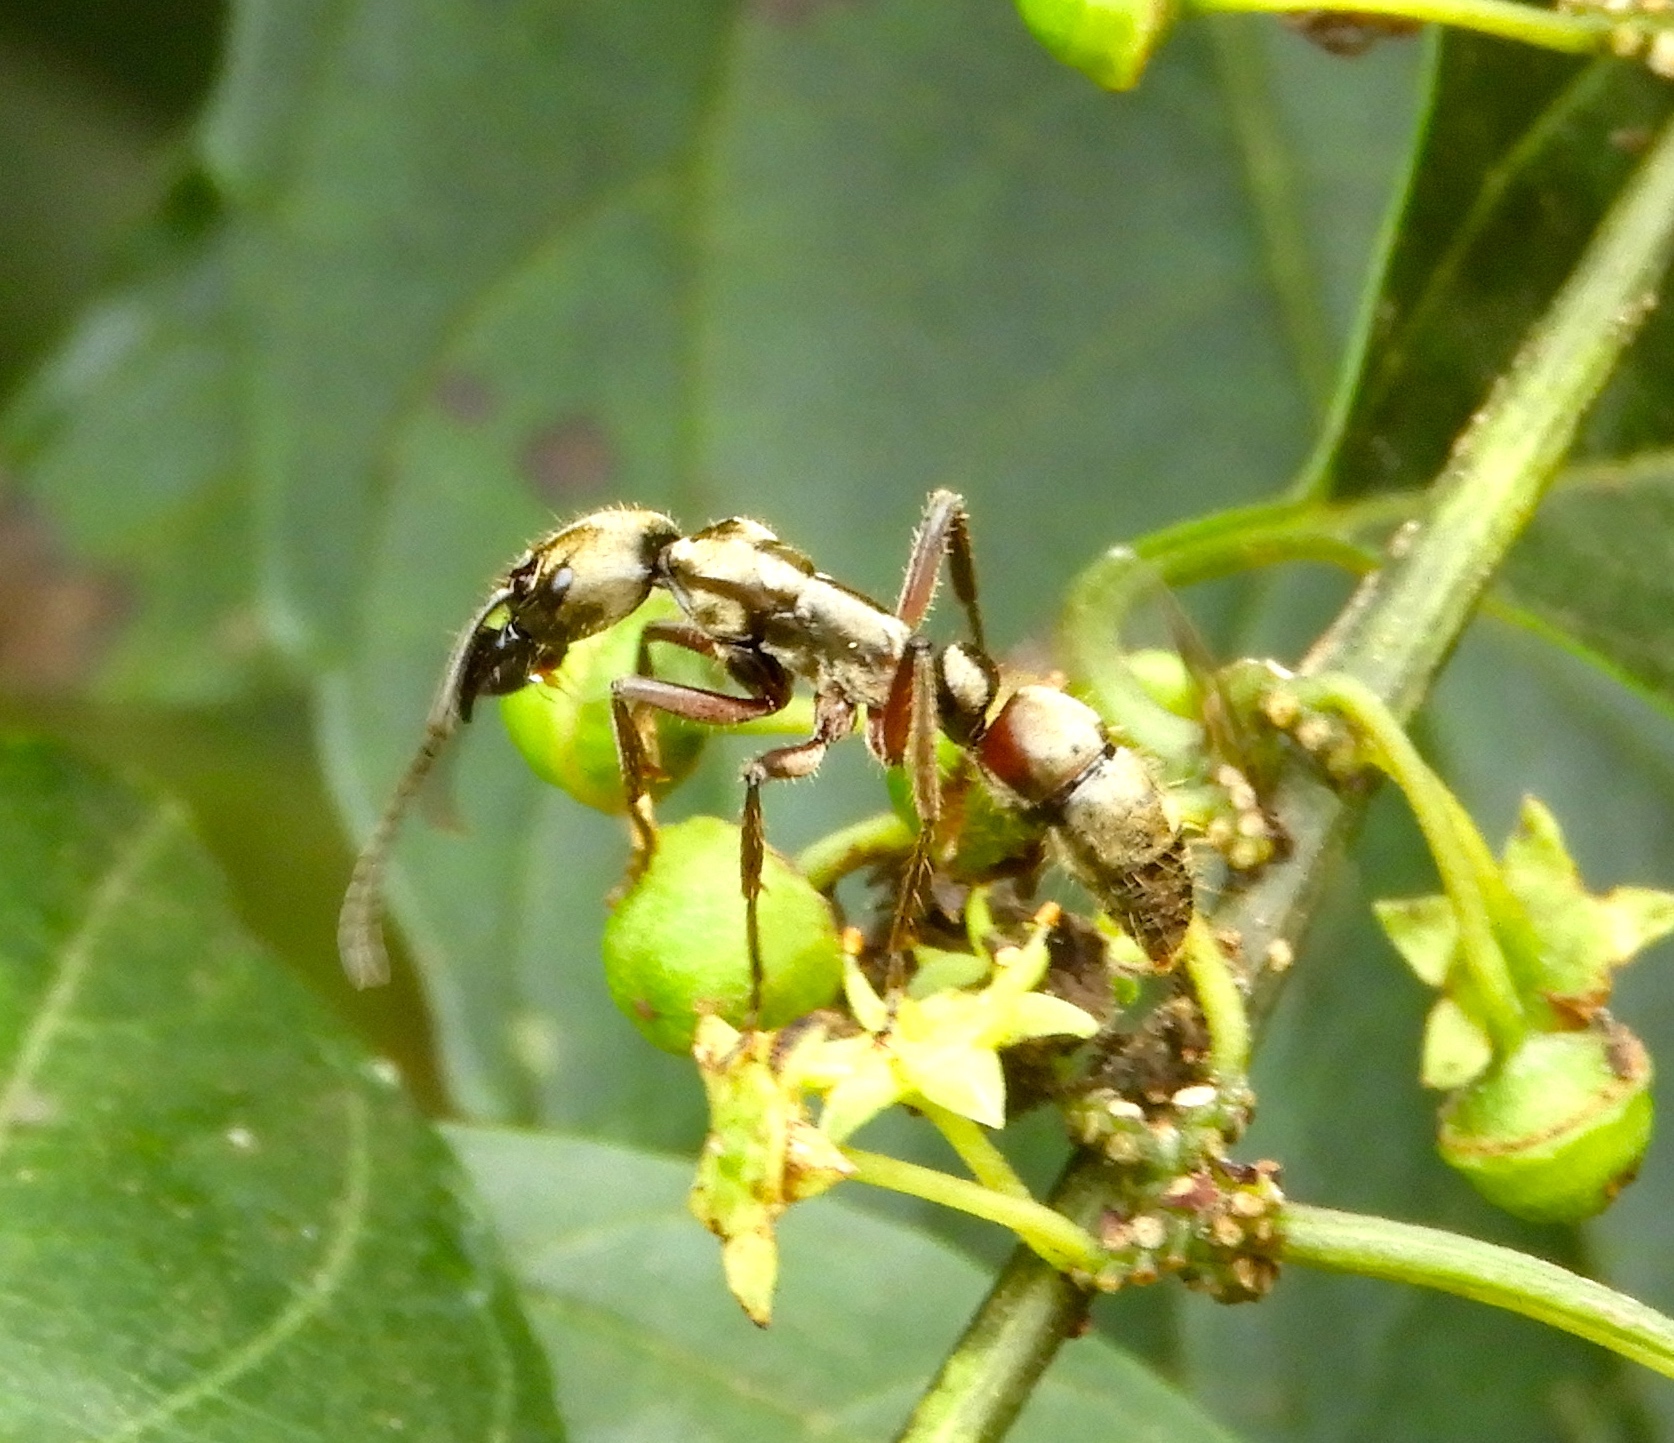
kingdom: Animalia
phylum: Arthropoda
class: Insecta
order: Hymenoptera
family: Formicidae
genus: Pachycondyla
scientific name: Pachycondyla villosa
